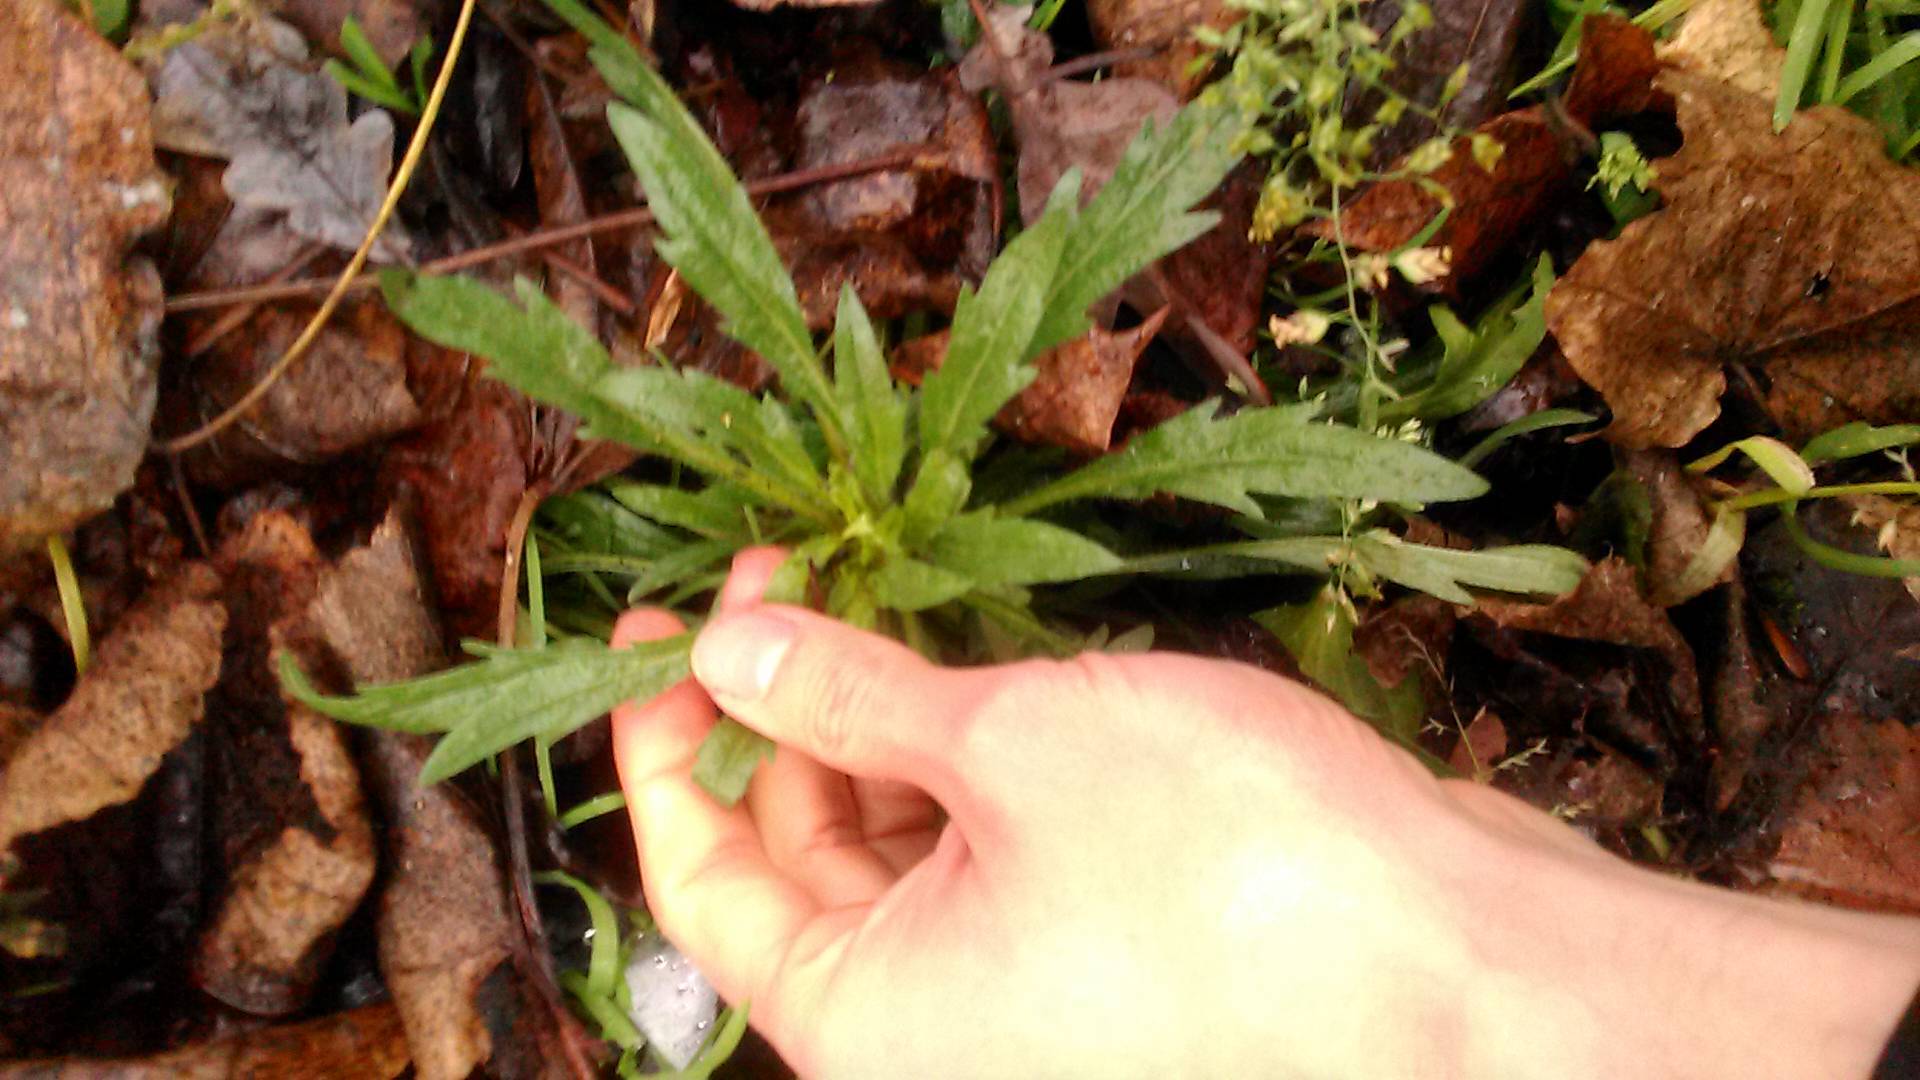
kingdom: Plantae
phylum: Tracheophyta
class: Magnoliopsida
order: Asterales
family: Asteraceae
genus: Erigeron
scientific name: Erigeron canadensis
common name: Canadian fleabane
